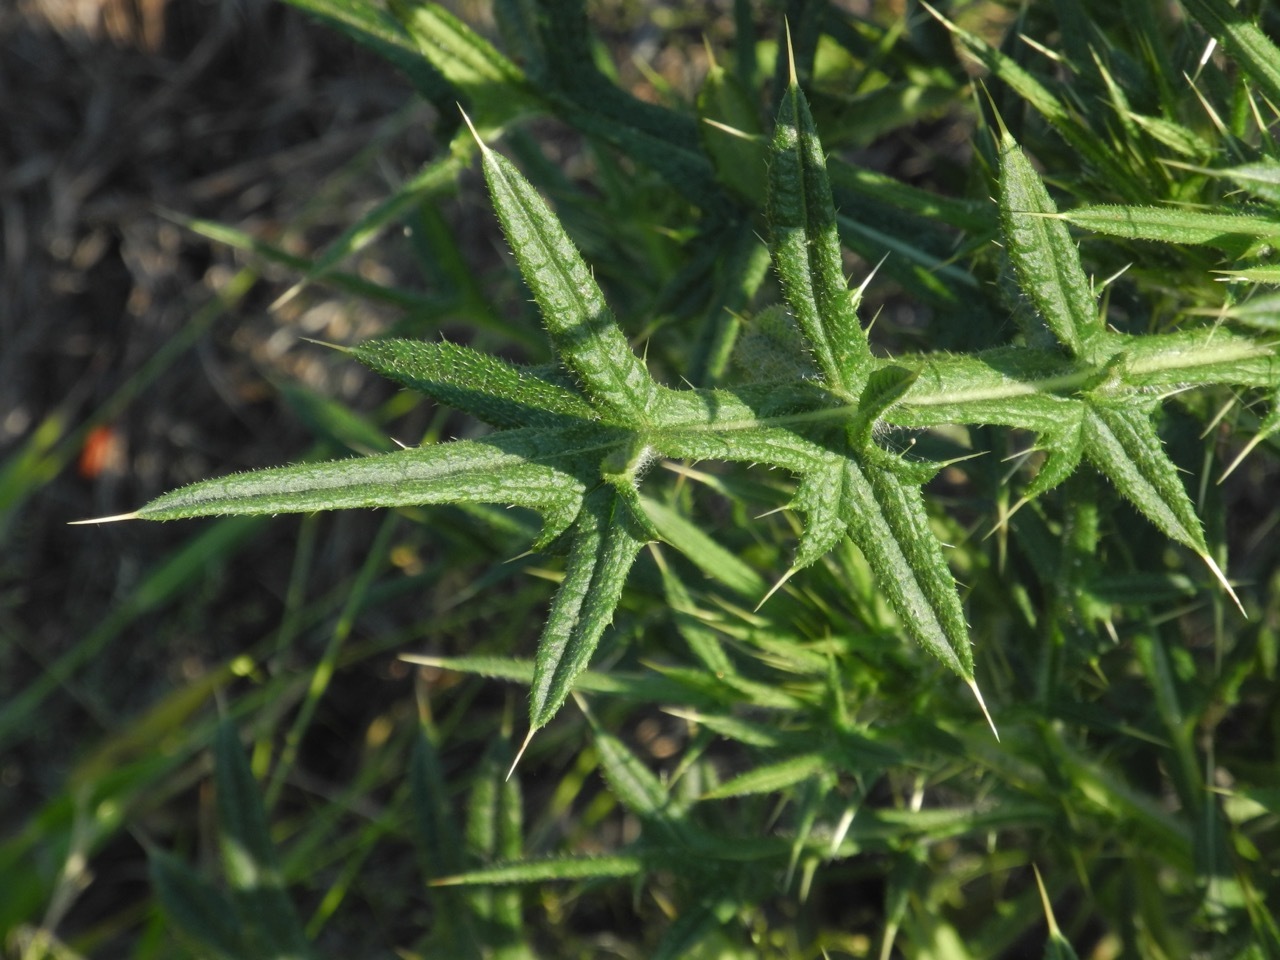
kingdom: Plantae
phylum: Tracheophyta
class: Magnoliopsida
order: Asterales
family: Asteraceae
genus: Cirsium
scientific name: Cirsium vulgare
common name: Bull thistle
